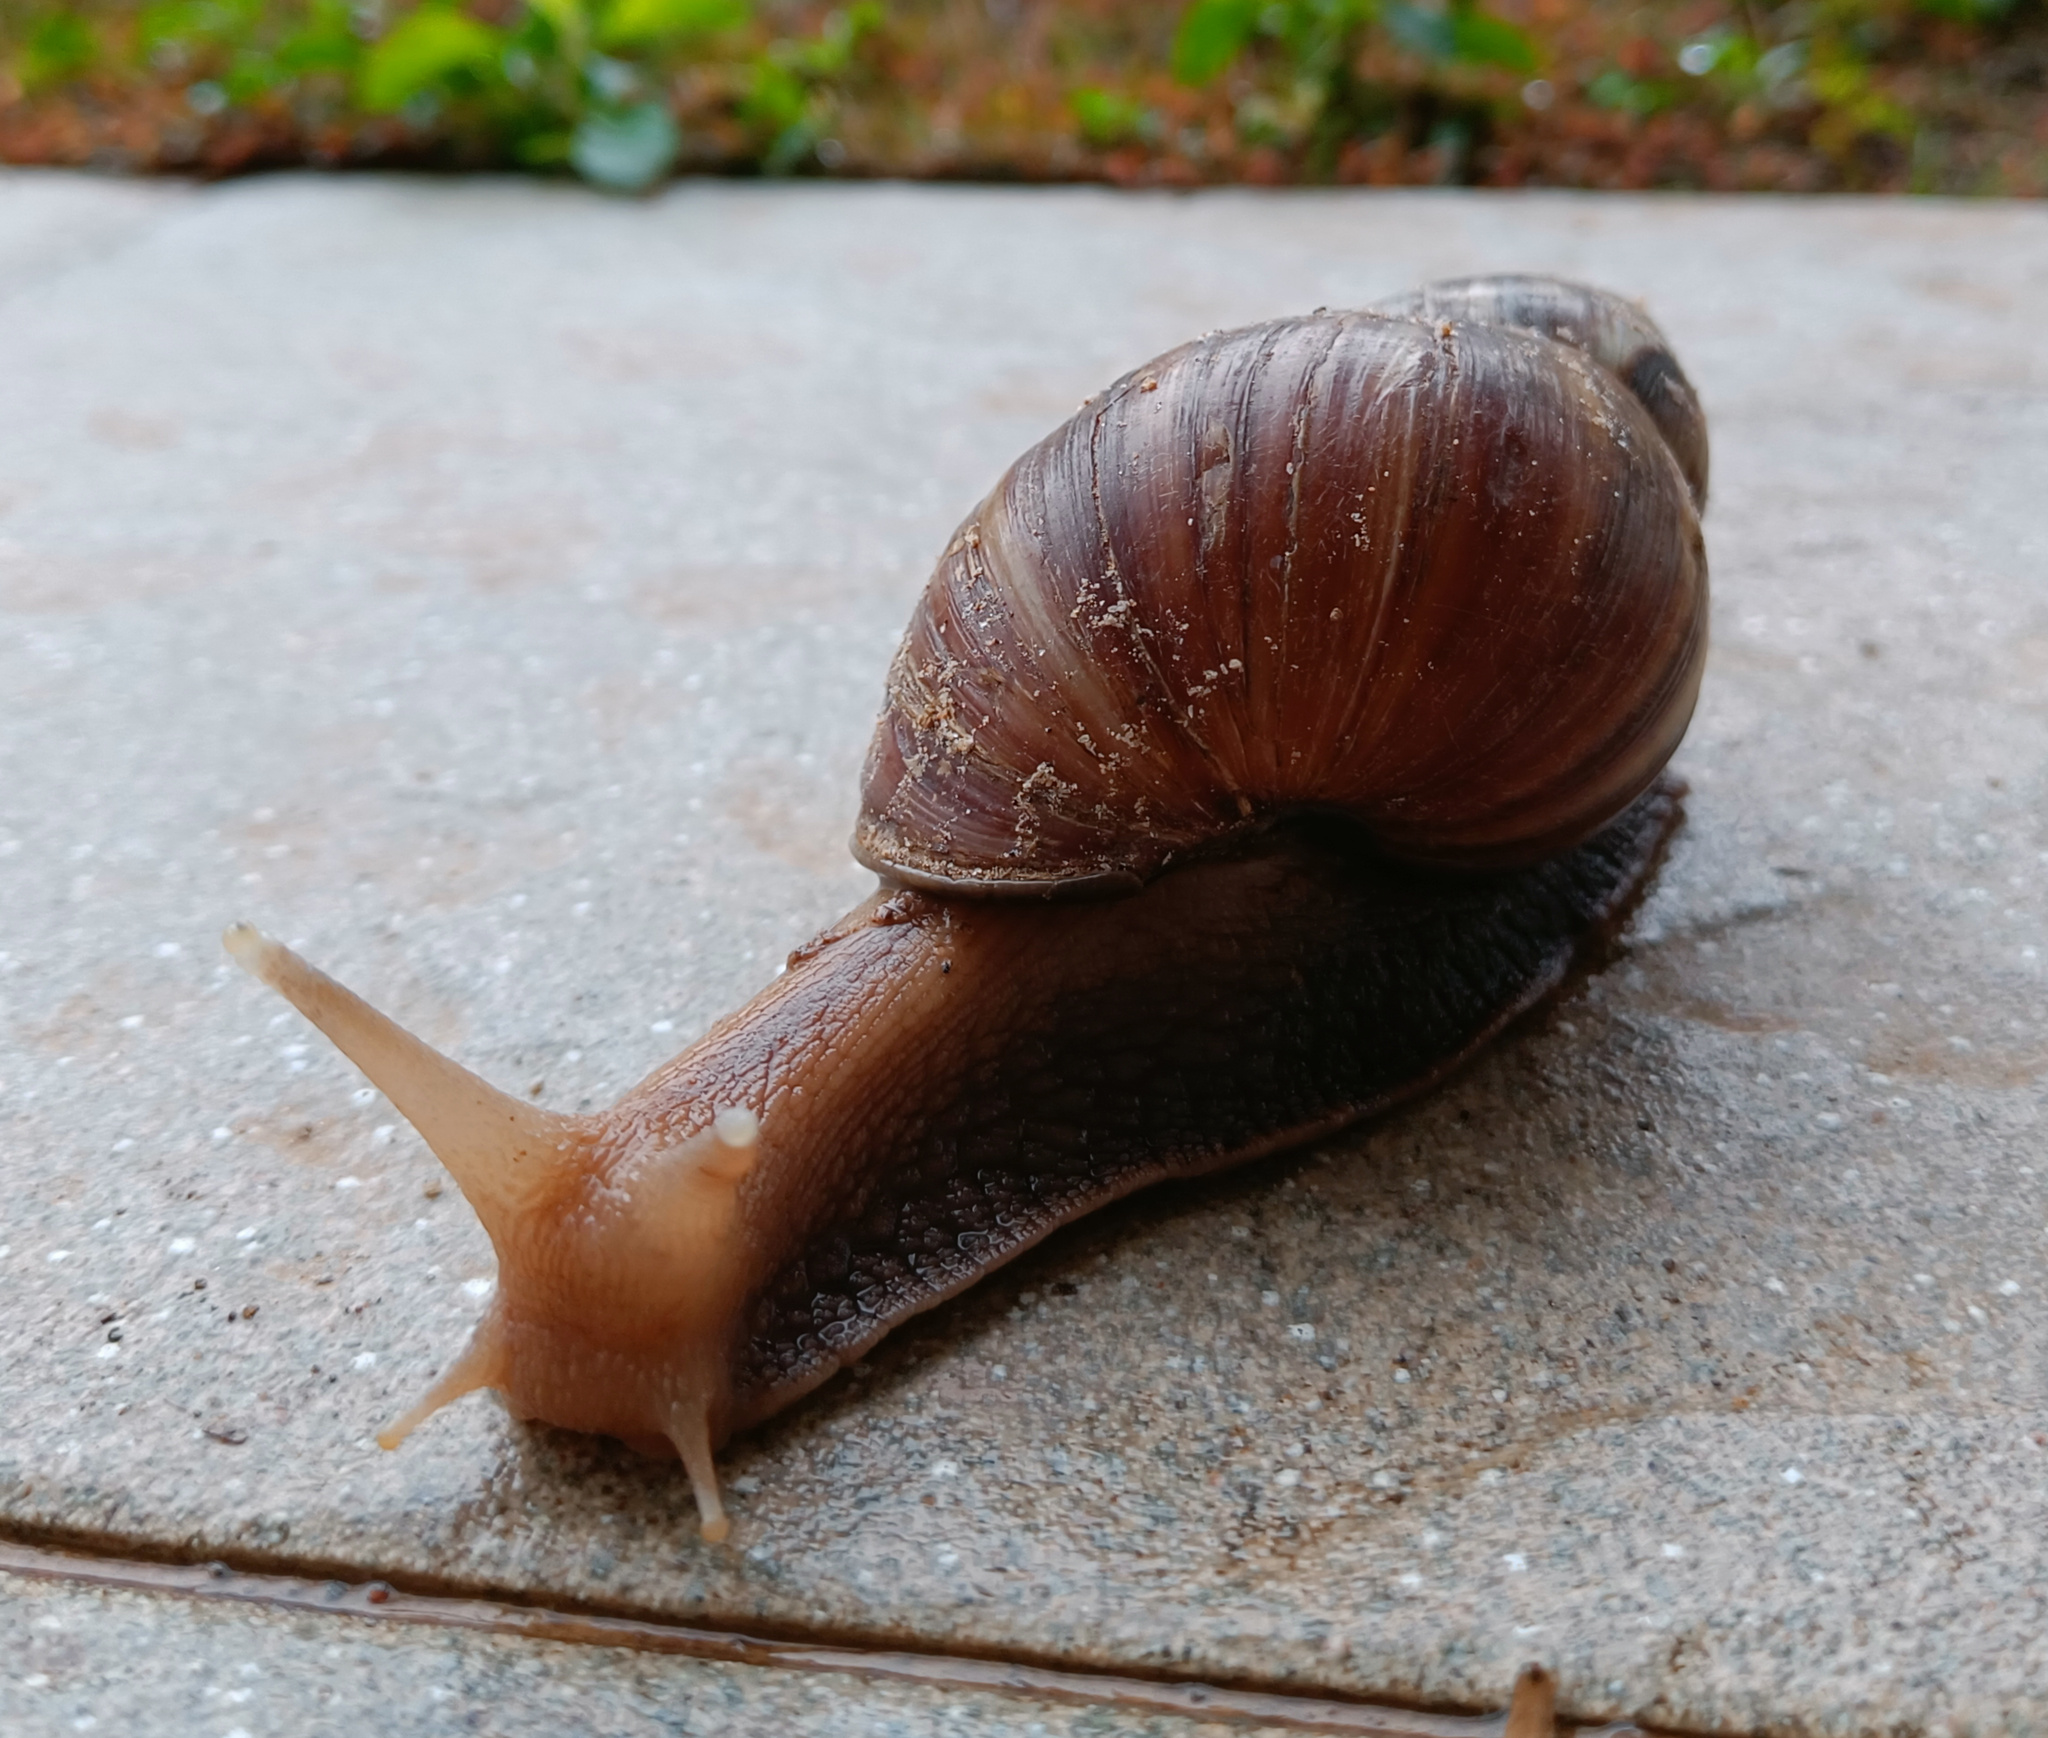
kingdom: Animalia
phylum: Mollusca
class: Gastropoda
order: Stylommatophora
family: Achatinidae
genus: Lissachatina
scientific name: Lissachatina fulica
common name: Giant african snail
